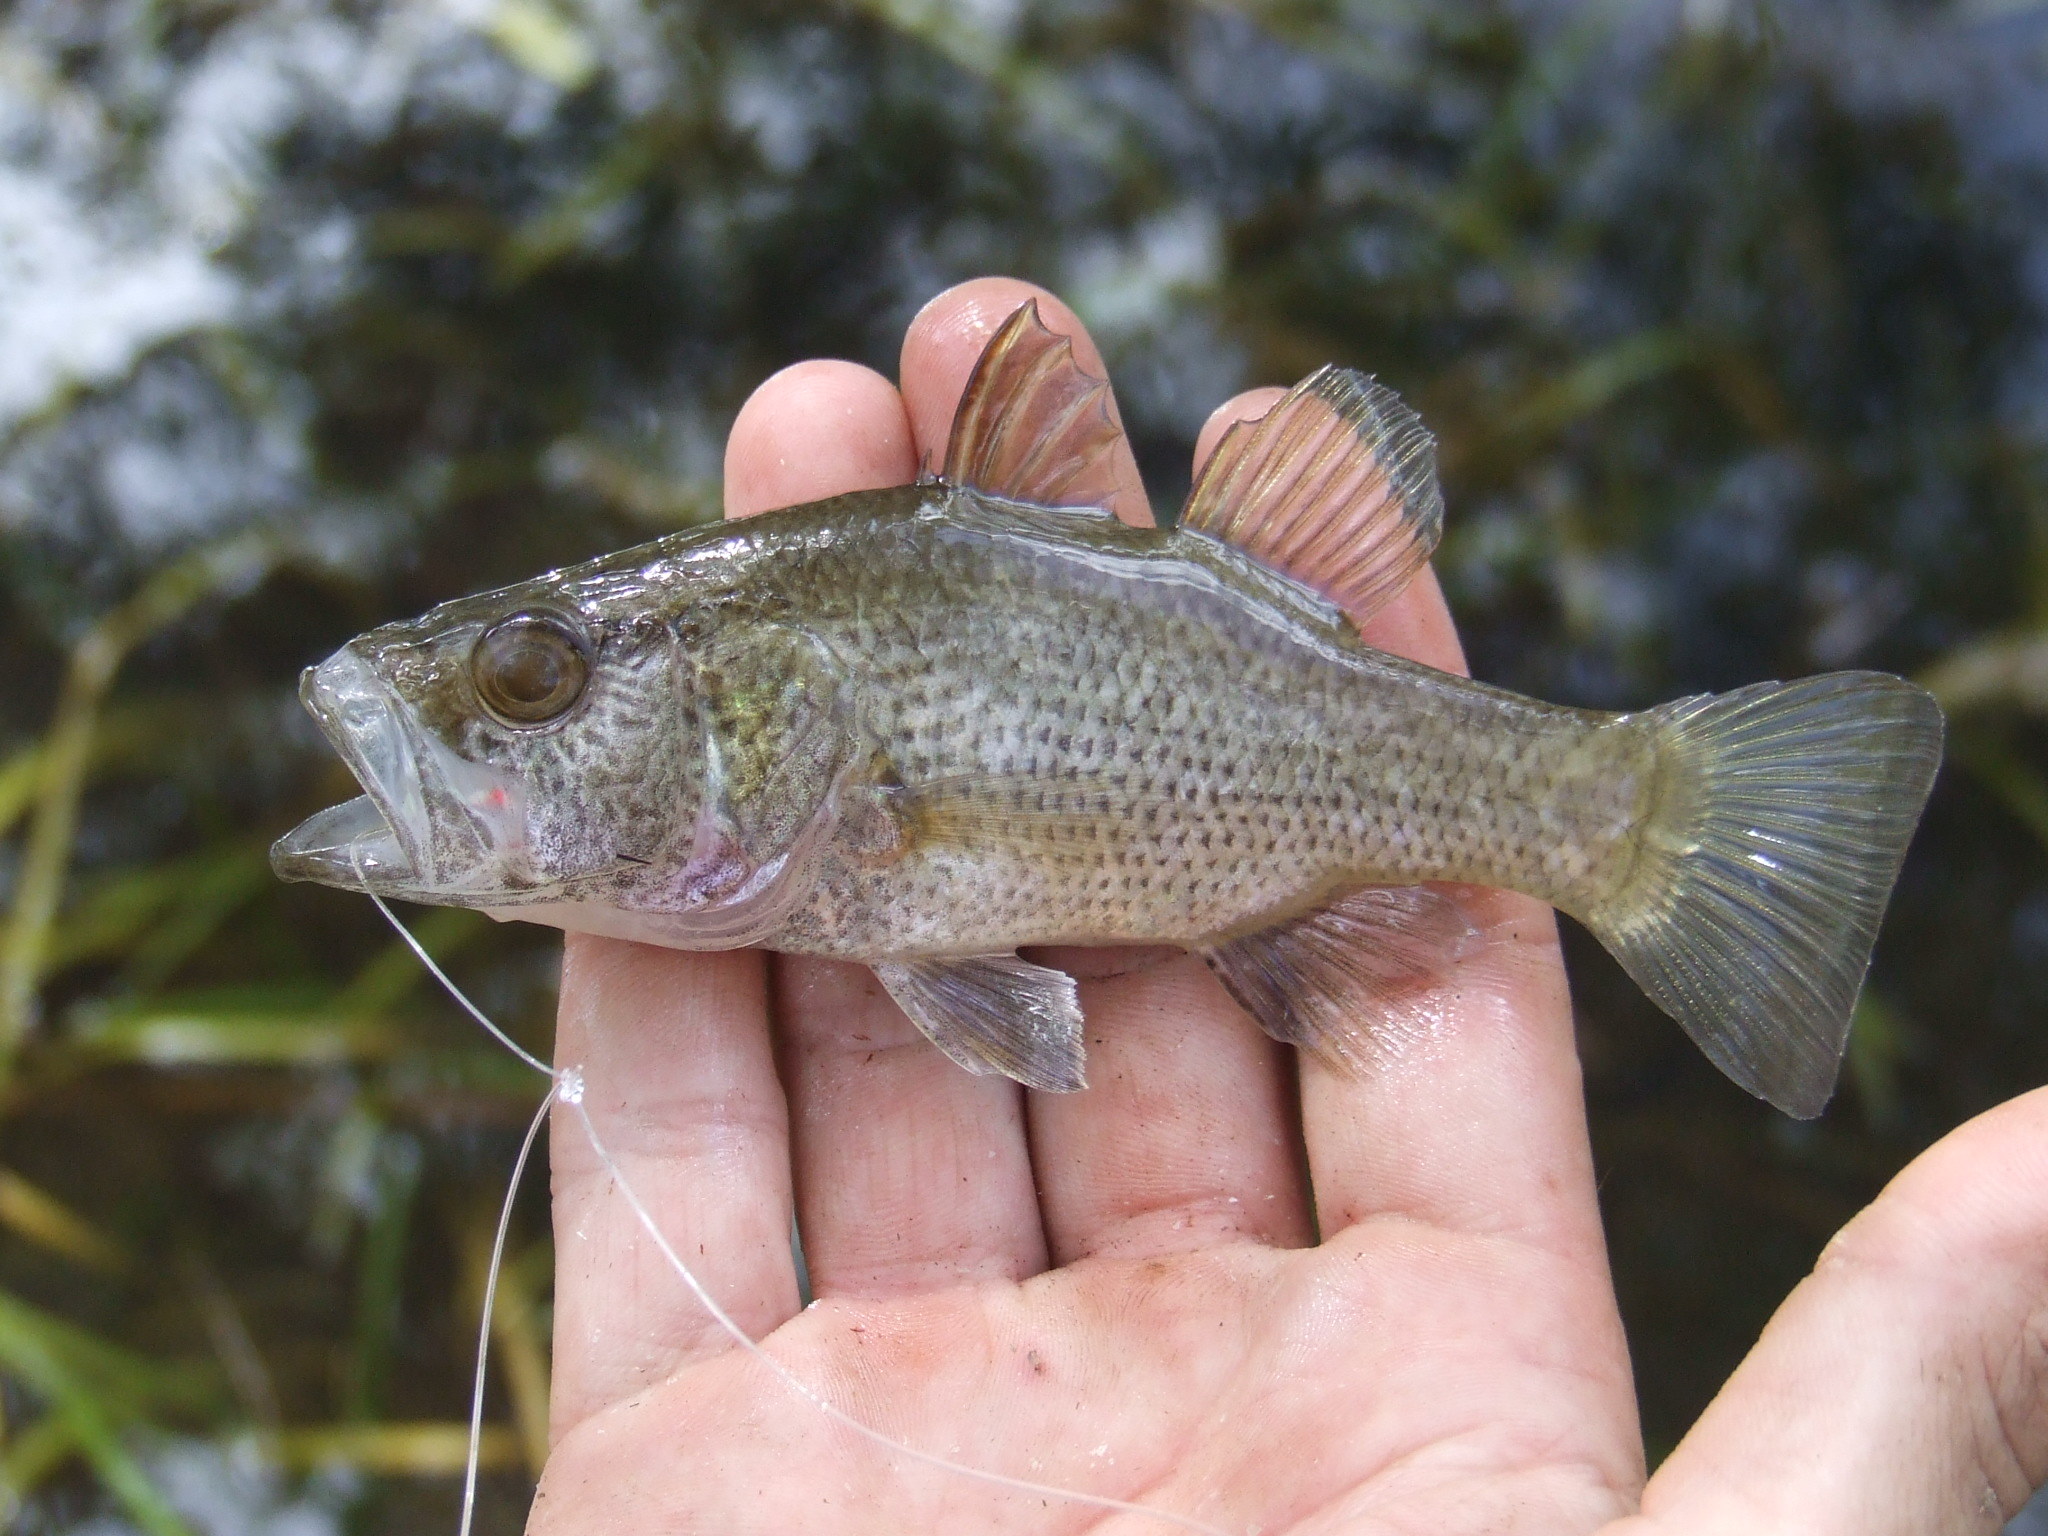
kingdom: Animalia
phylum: Chordata
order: Perciformes
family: Apogonidae
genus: Glossamia
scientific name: Glossamia aprion
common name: Mouth almighty
